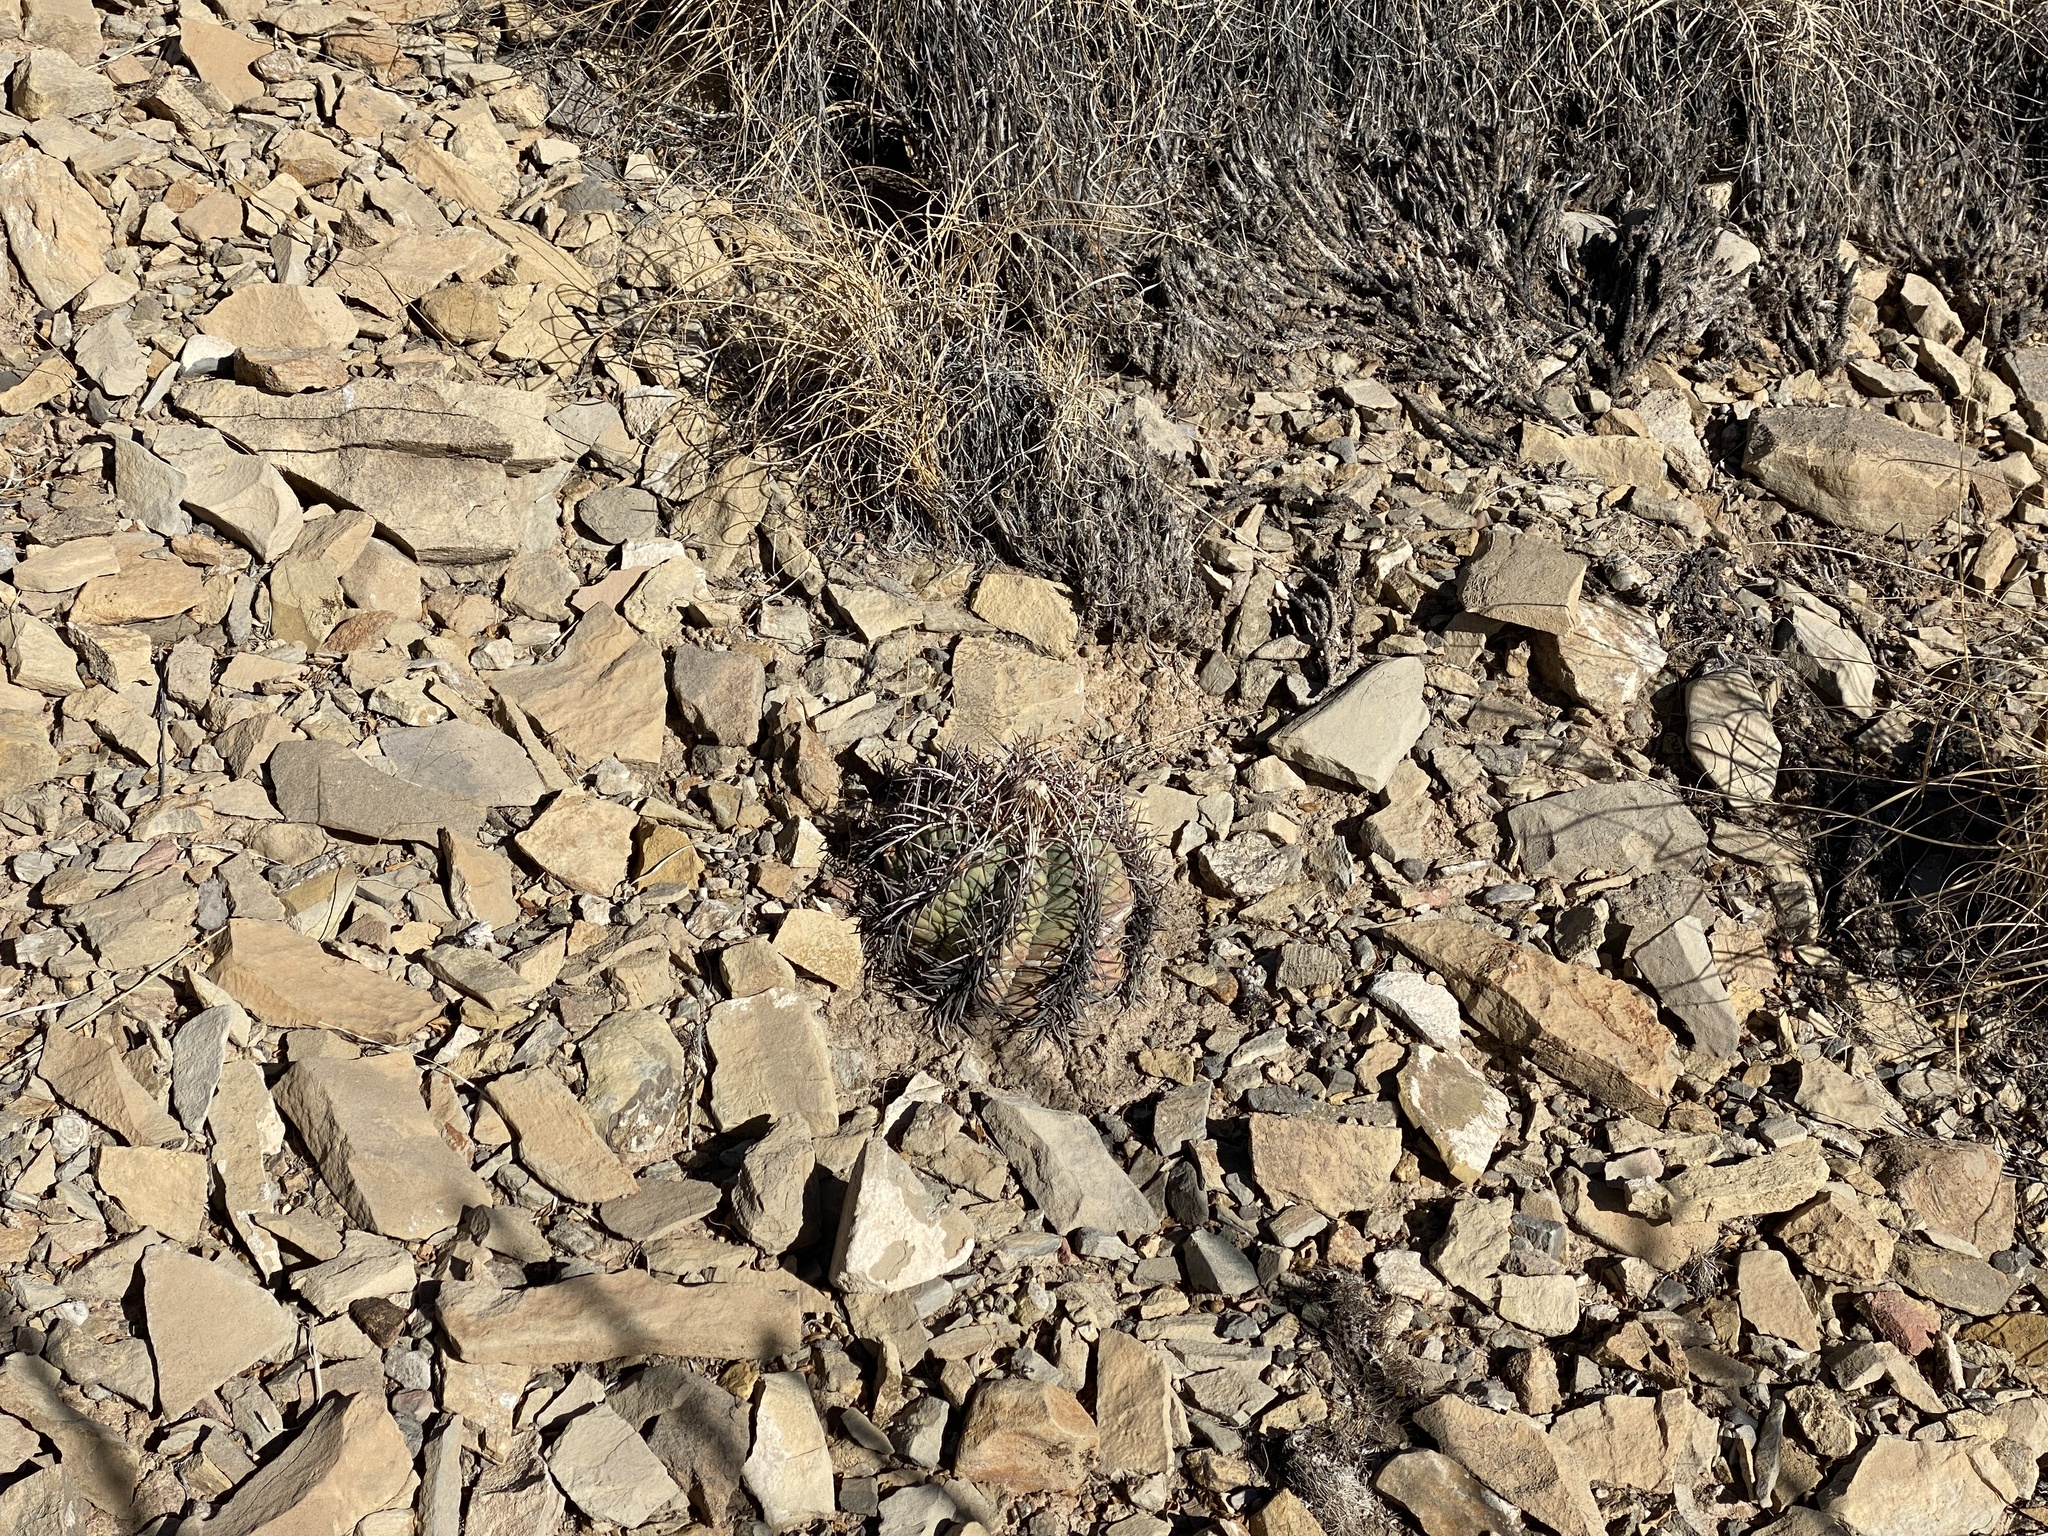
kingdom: Plantae
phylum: Tracheophyta
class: Magnoliopsida
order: Caryophyllales
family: Cactaceae
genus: Echinocactus
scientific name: Echinocactus horizonthalonius
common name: Devilshead
